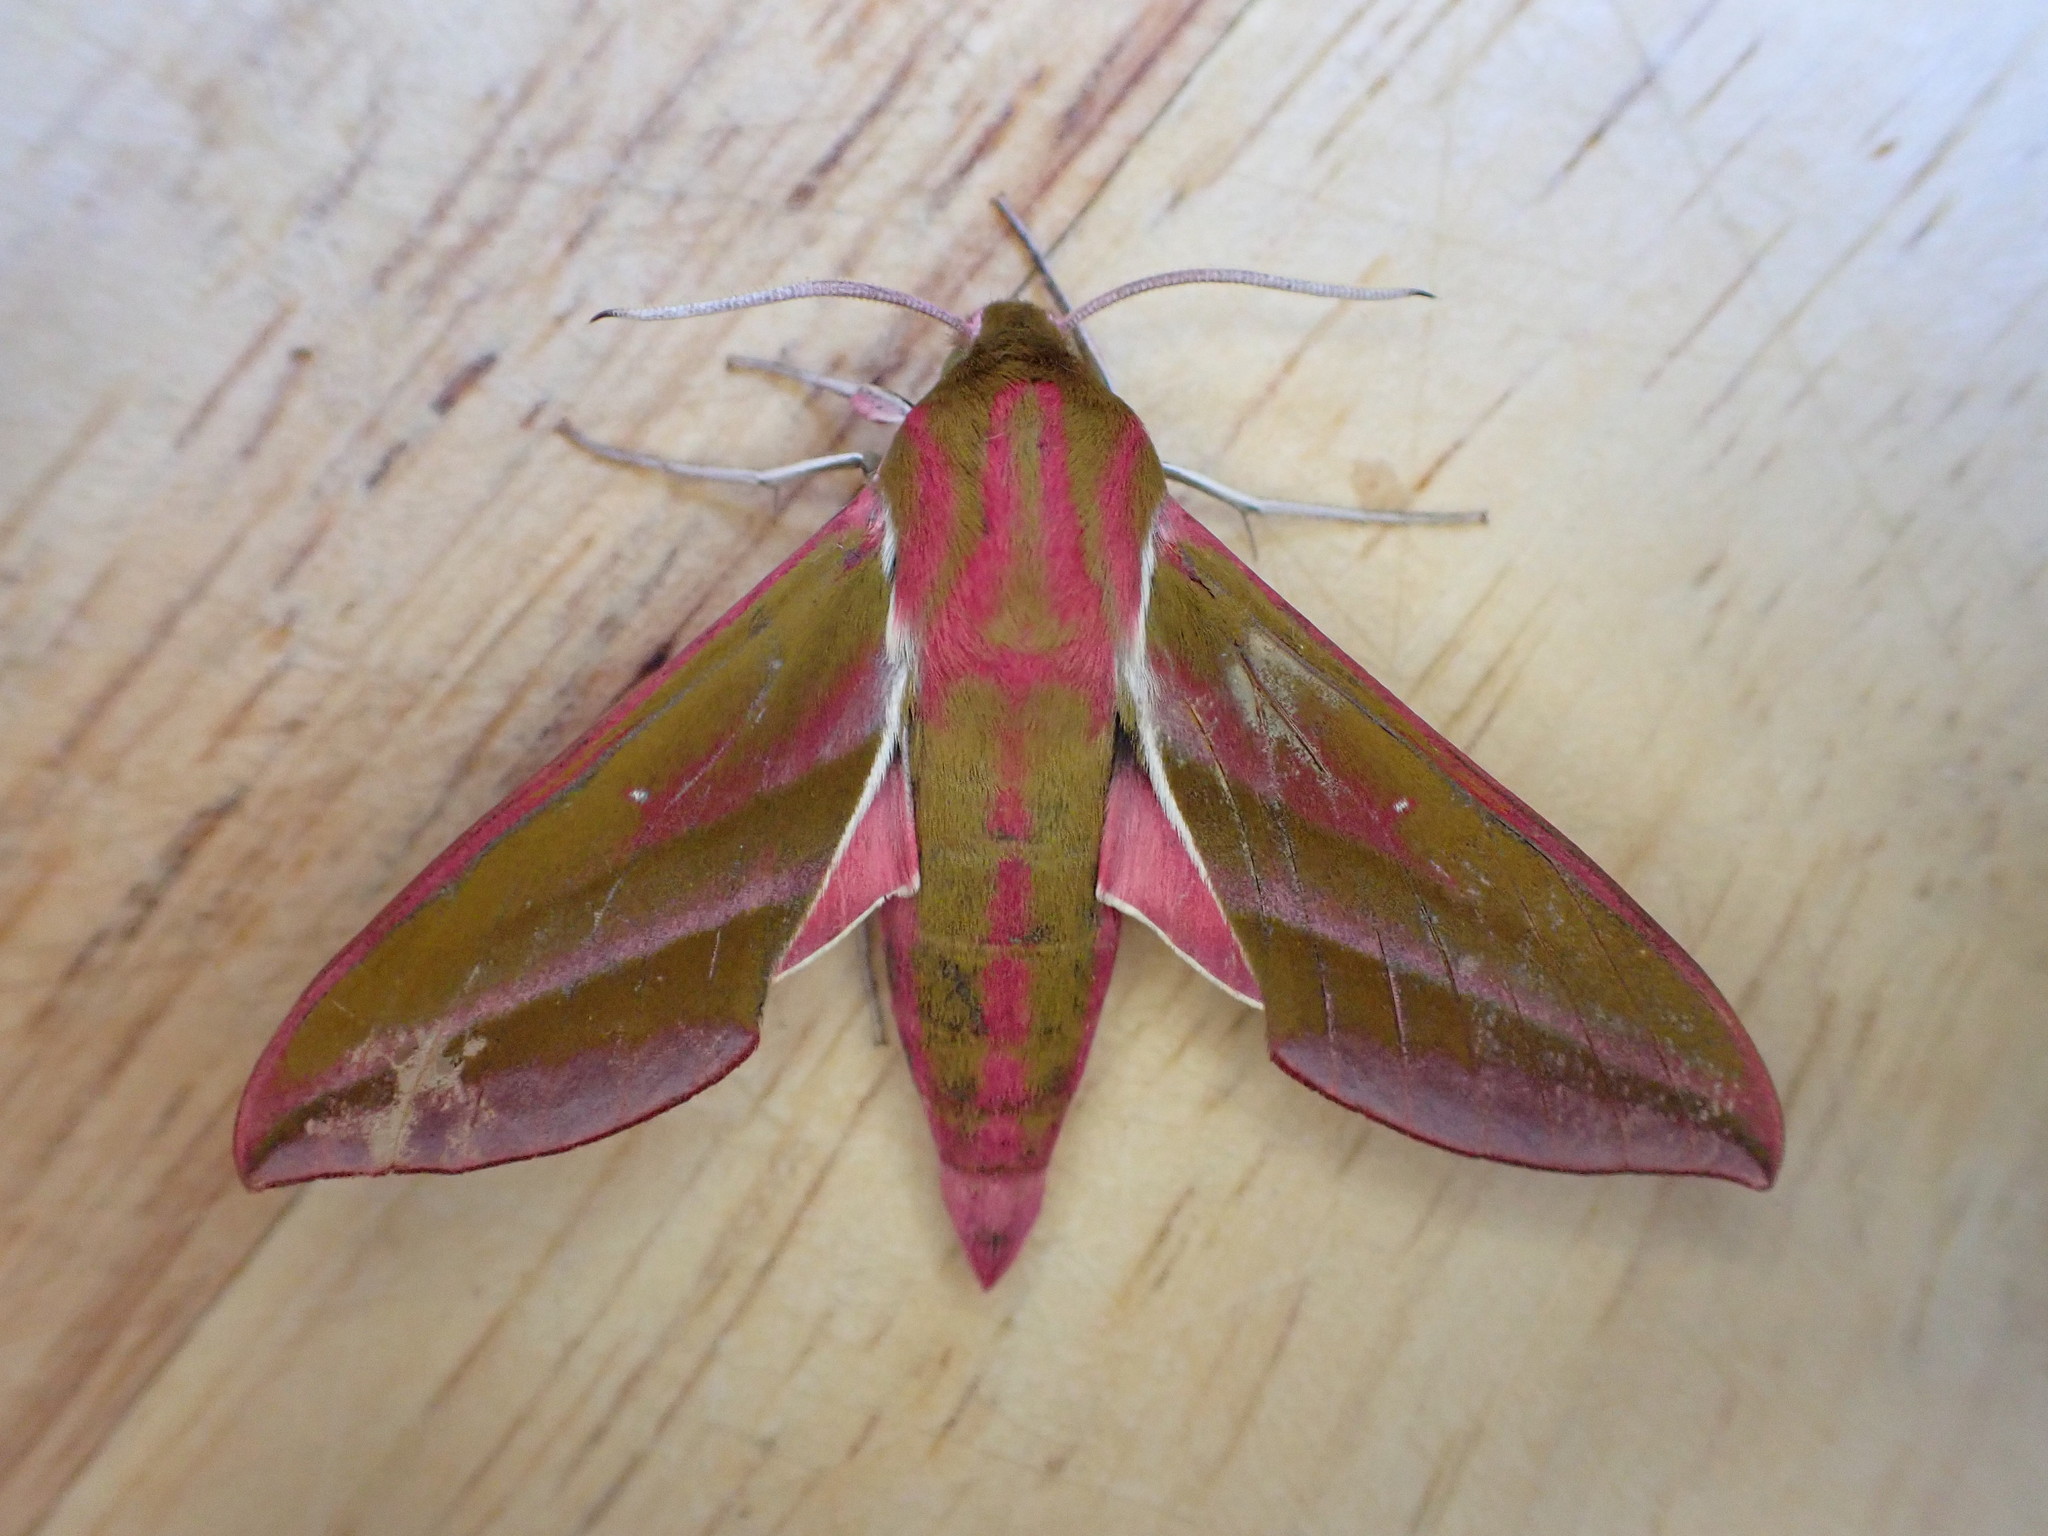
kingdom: Animalia
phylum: Arthropoda
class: Insecta
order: Lepidoptera
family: Sphingidae
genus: Deilephila
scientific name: Deilephila elpenor
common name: Elephant hawk-moth
